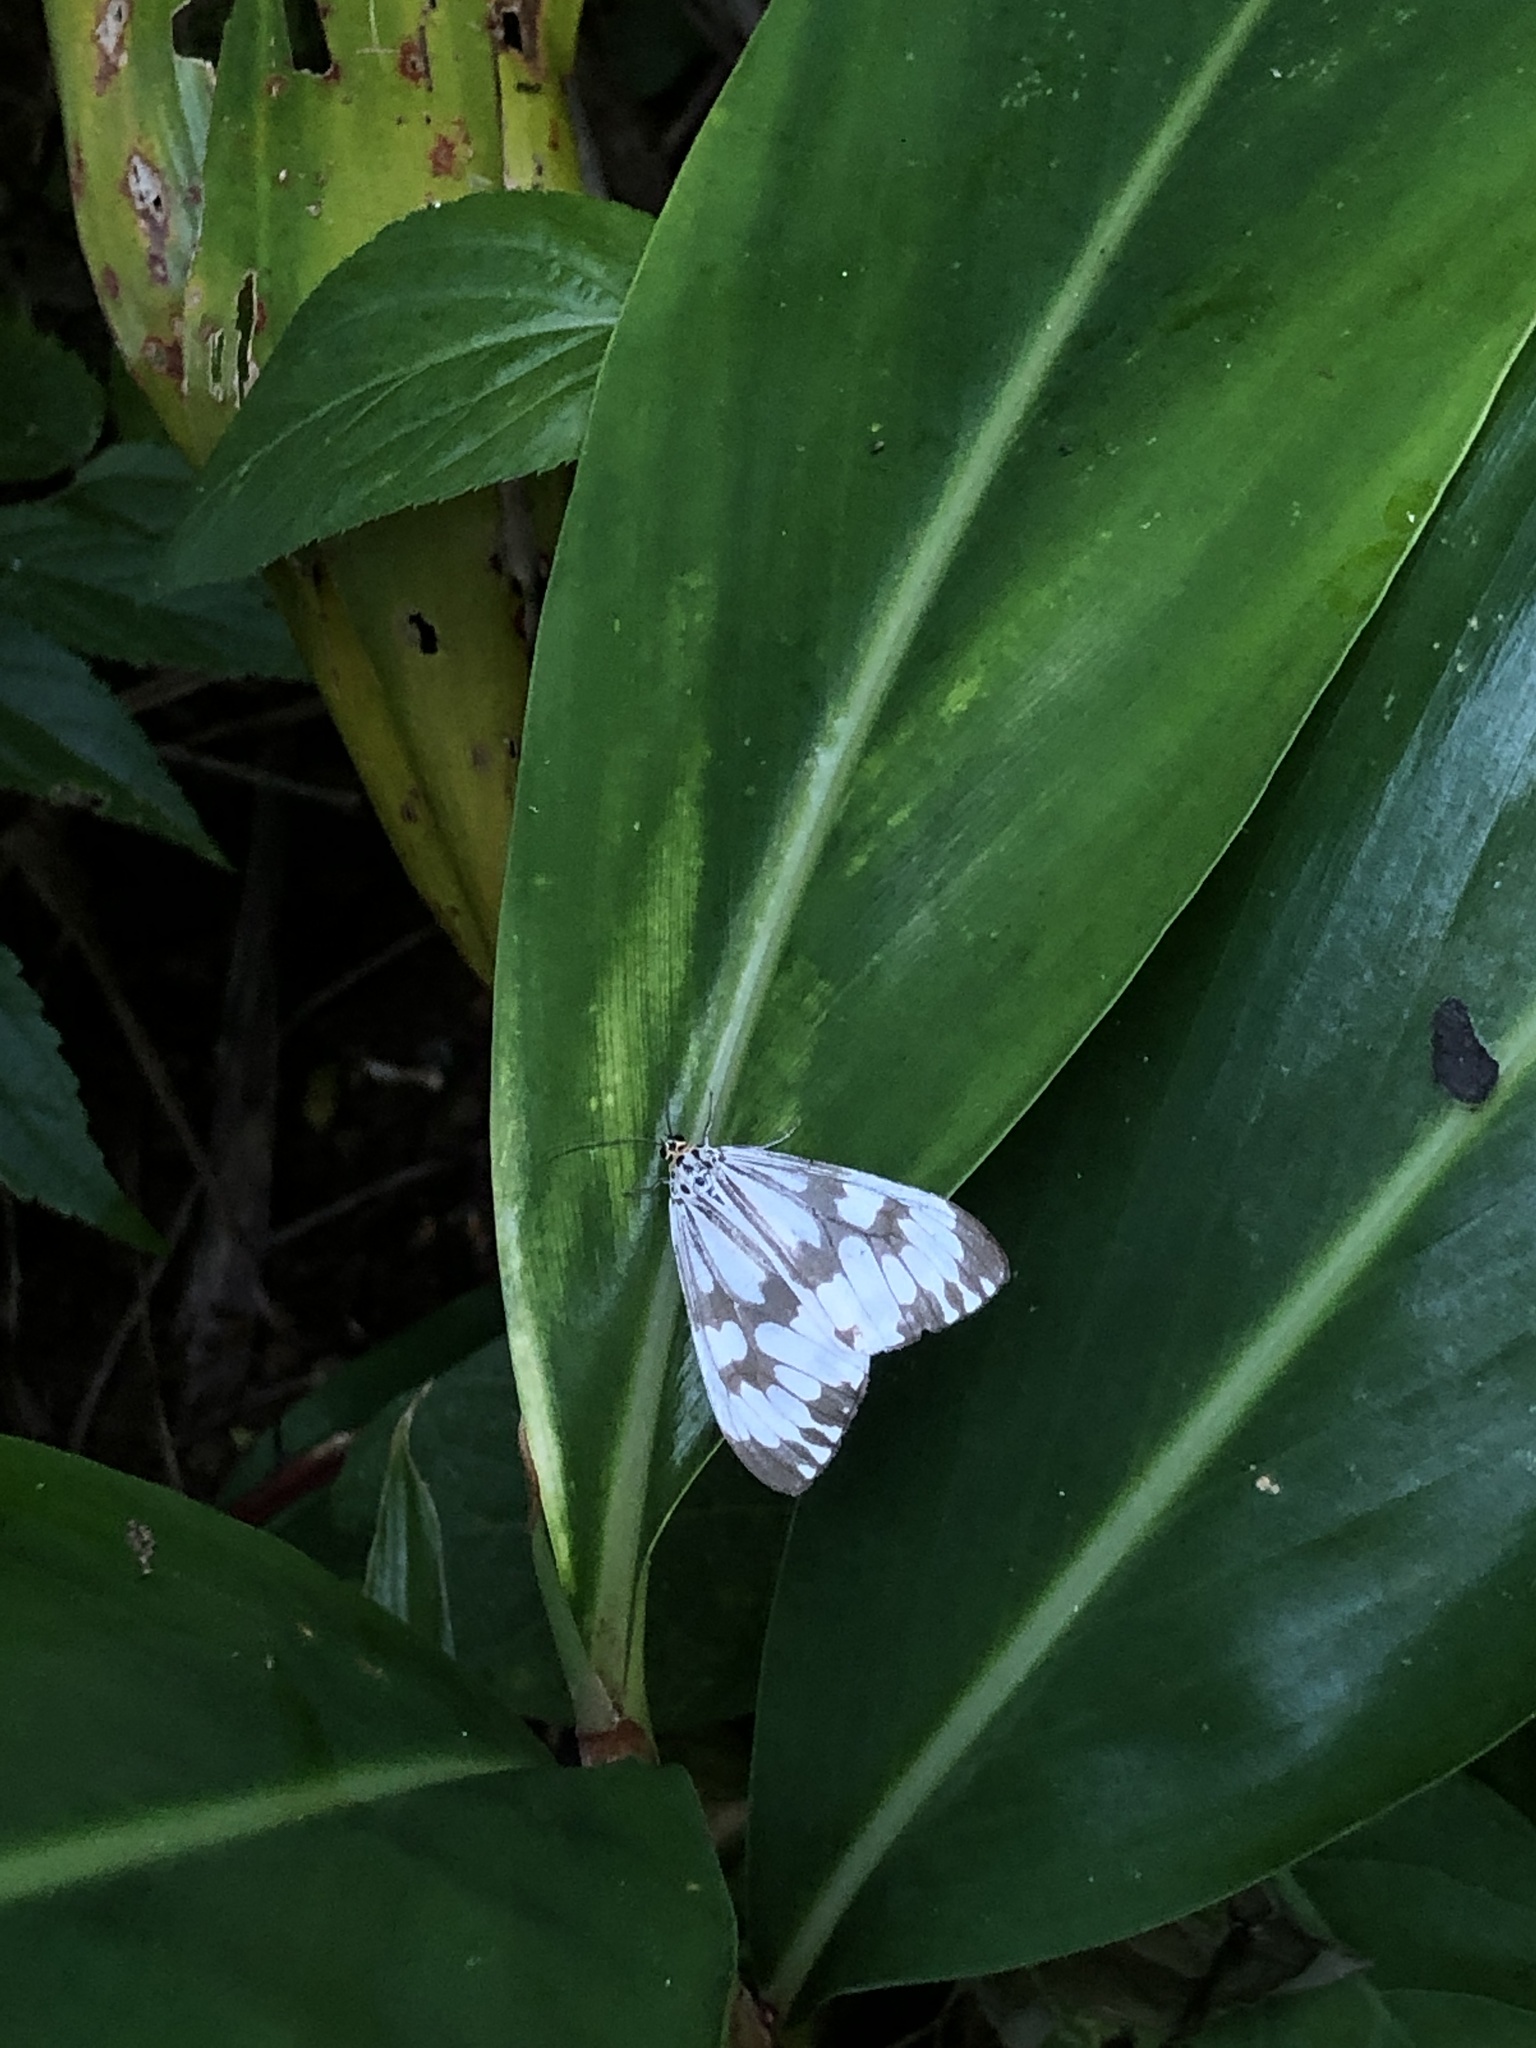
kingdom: Animalia
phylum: Arthropoda
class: Insecta
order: Lepidoptera
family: Erebidae
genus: Nyctemera
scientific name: Nyctemera adversata
